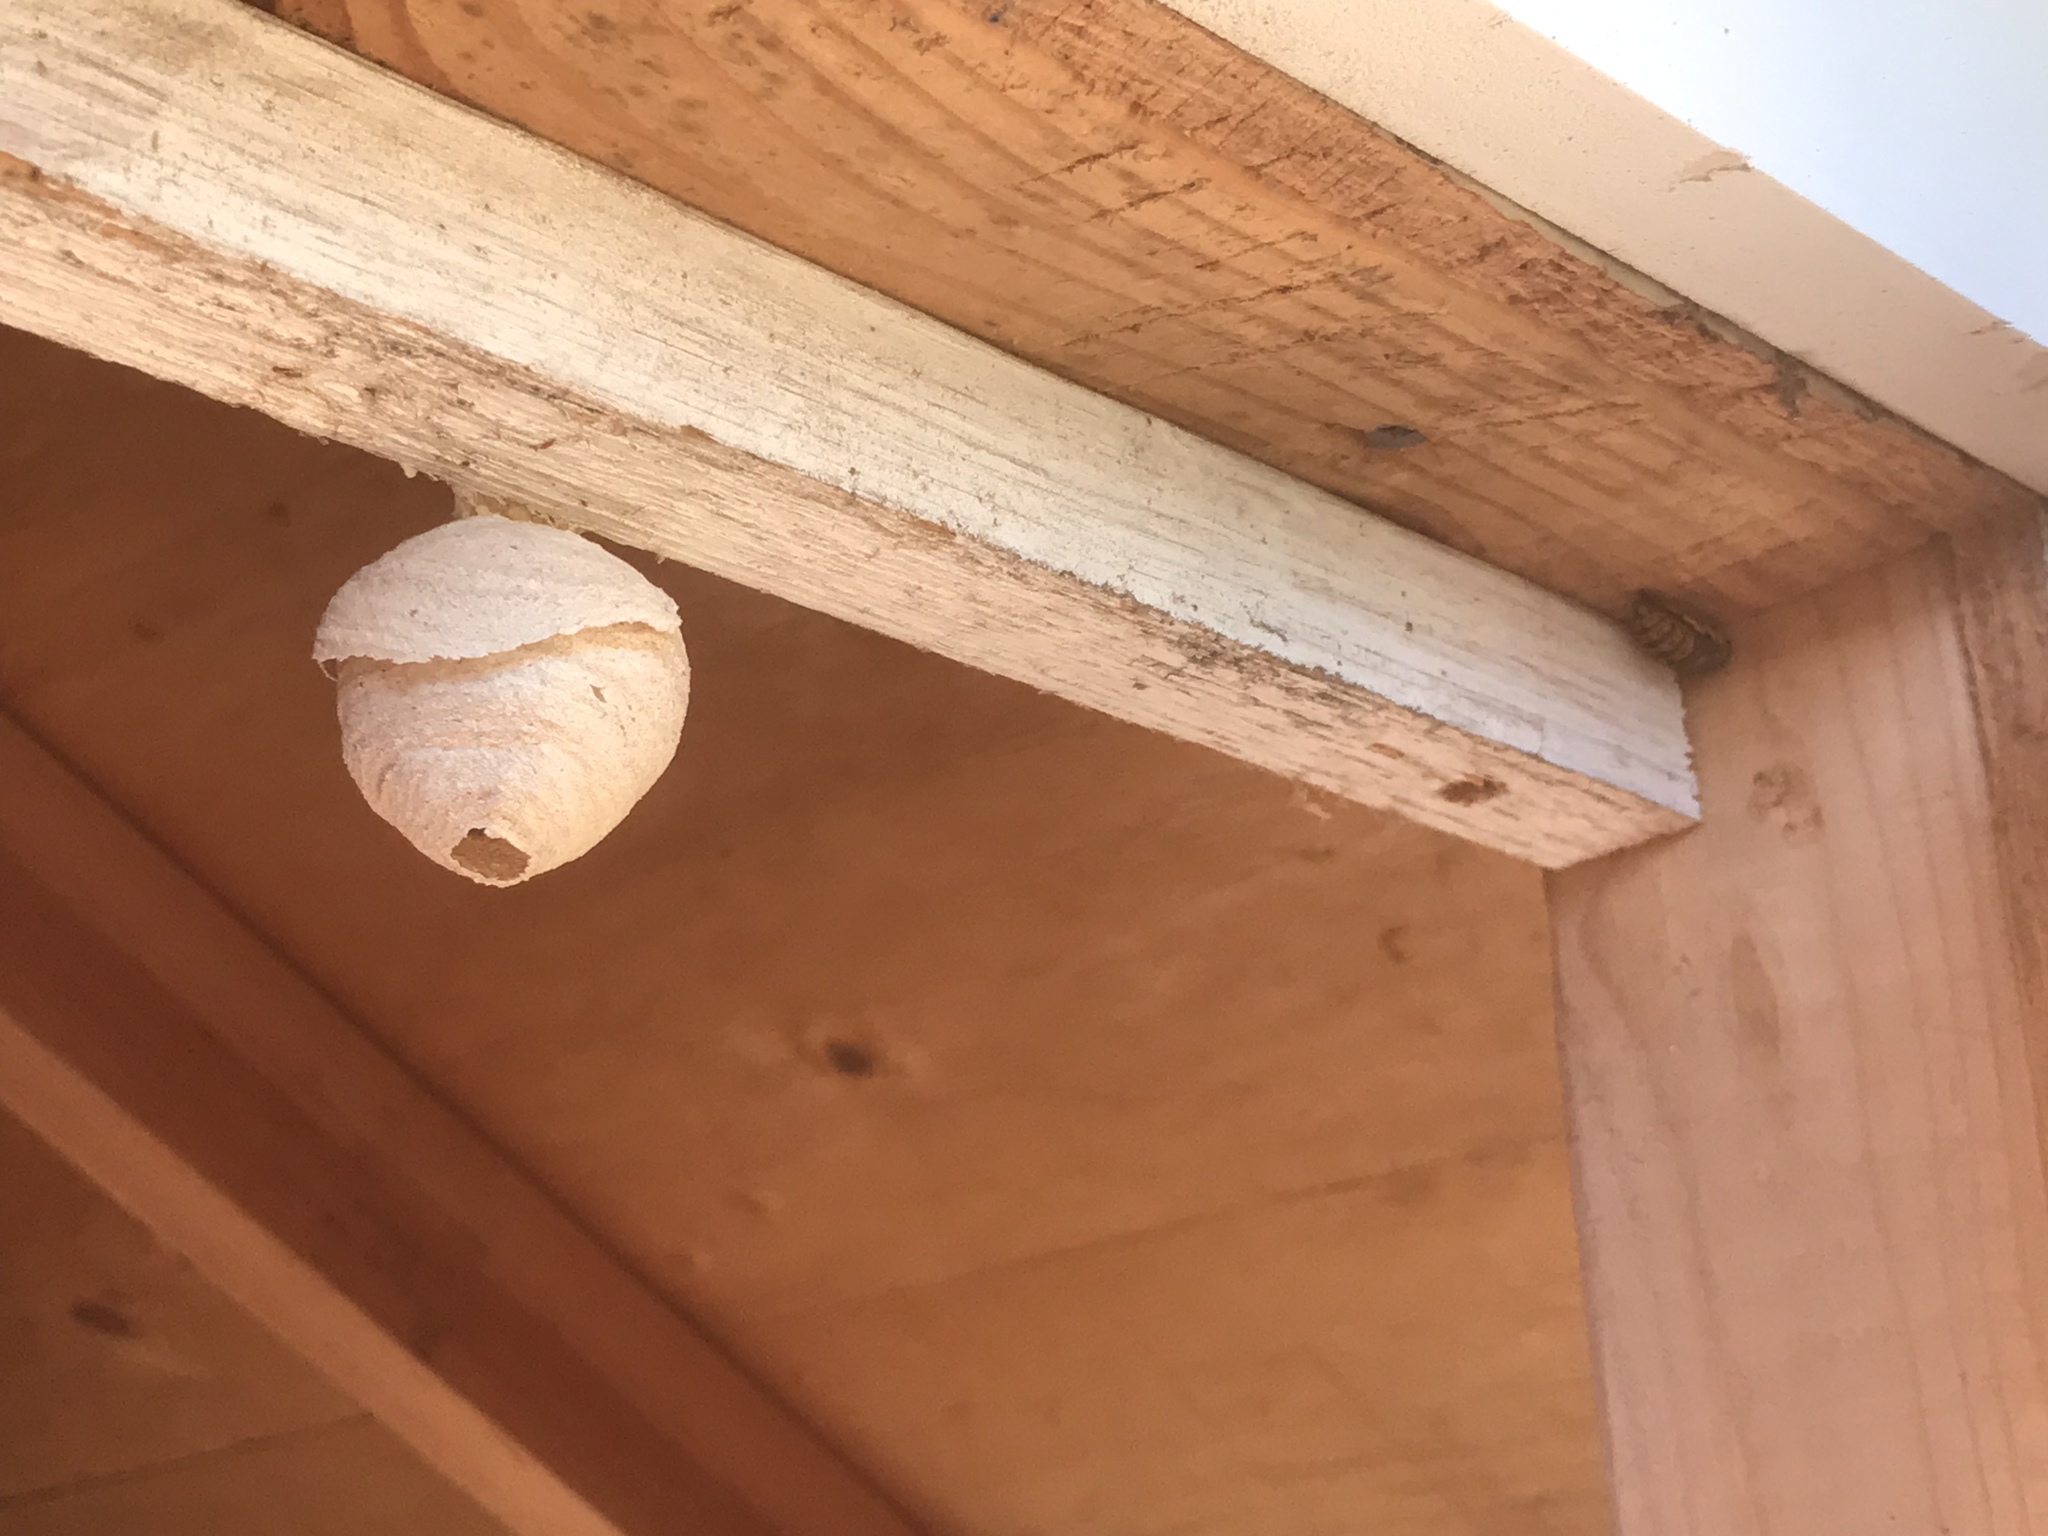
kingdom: Animalia
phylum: Arthropoda
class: Insecta
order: Hymenoptera
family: Vespidae
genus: Vespula
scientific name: Vespula
